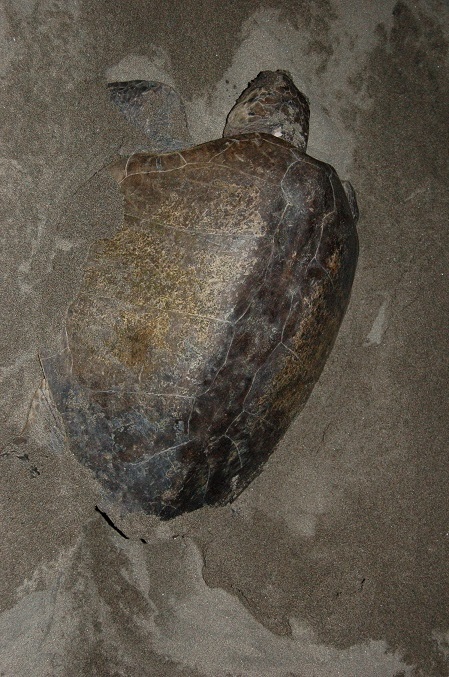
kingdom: Animalia
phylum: Chordata
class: Testudines
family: Cheloniidae
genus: Lepidochelys
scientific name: Lepidochelys olivacea
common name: Olive ridley
